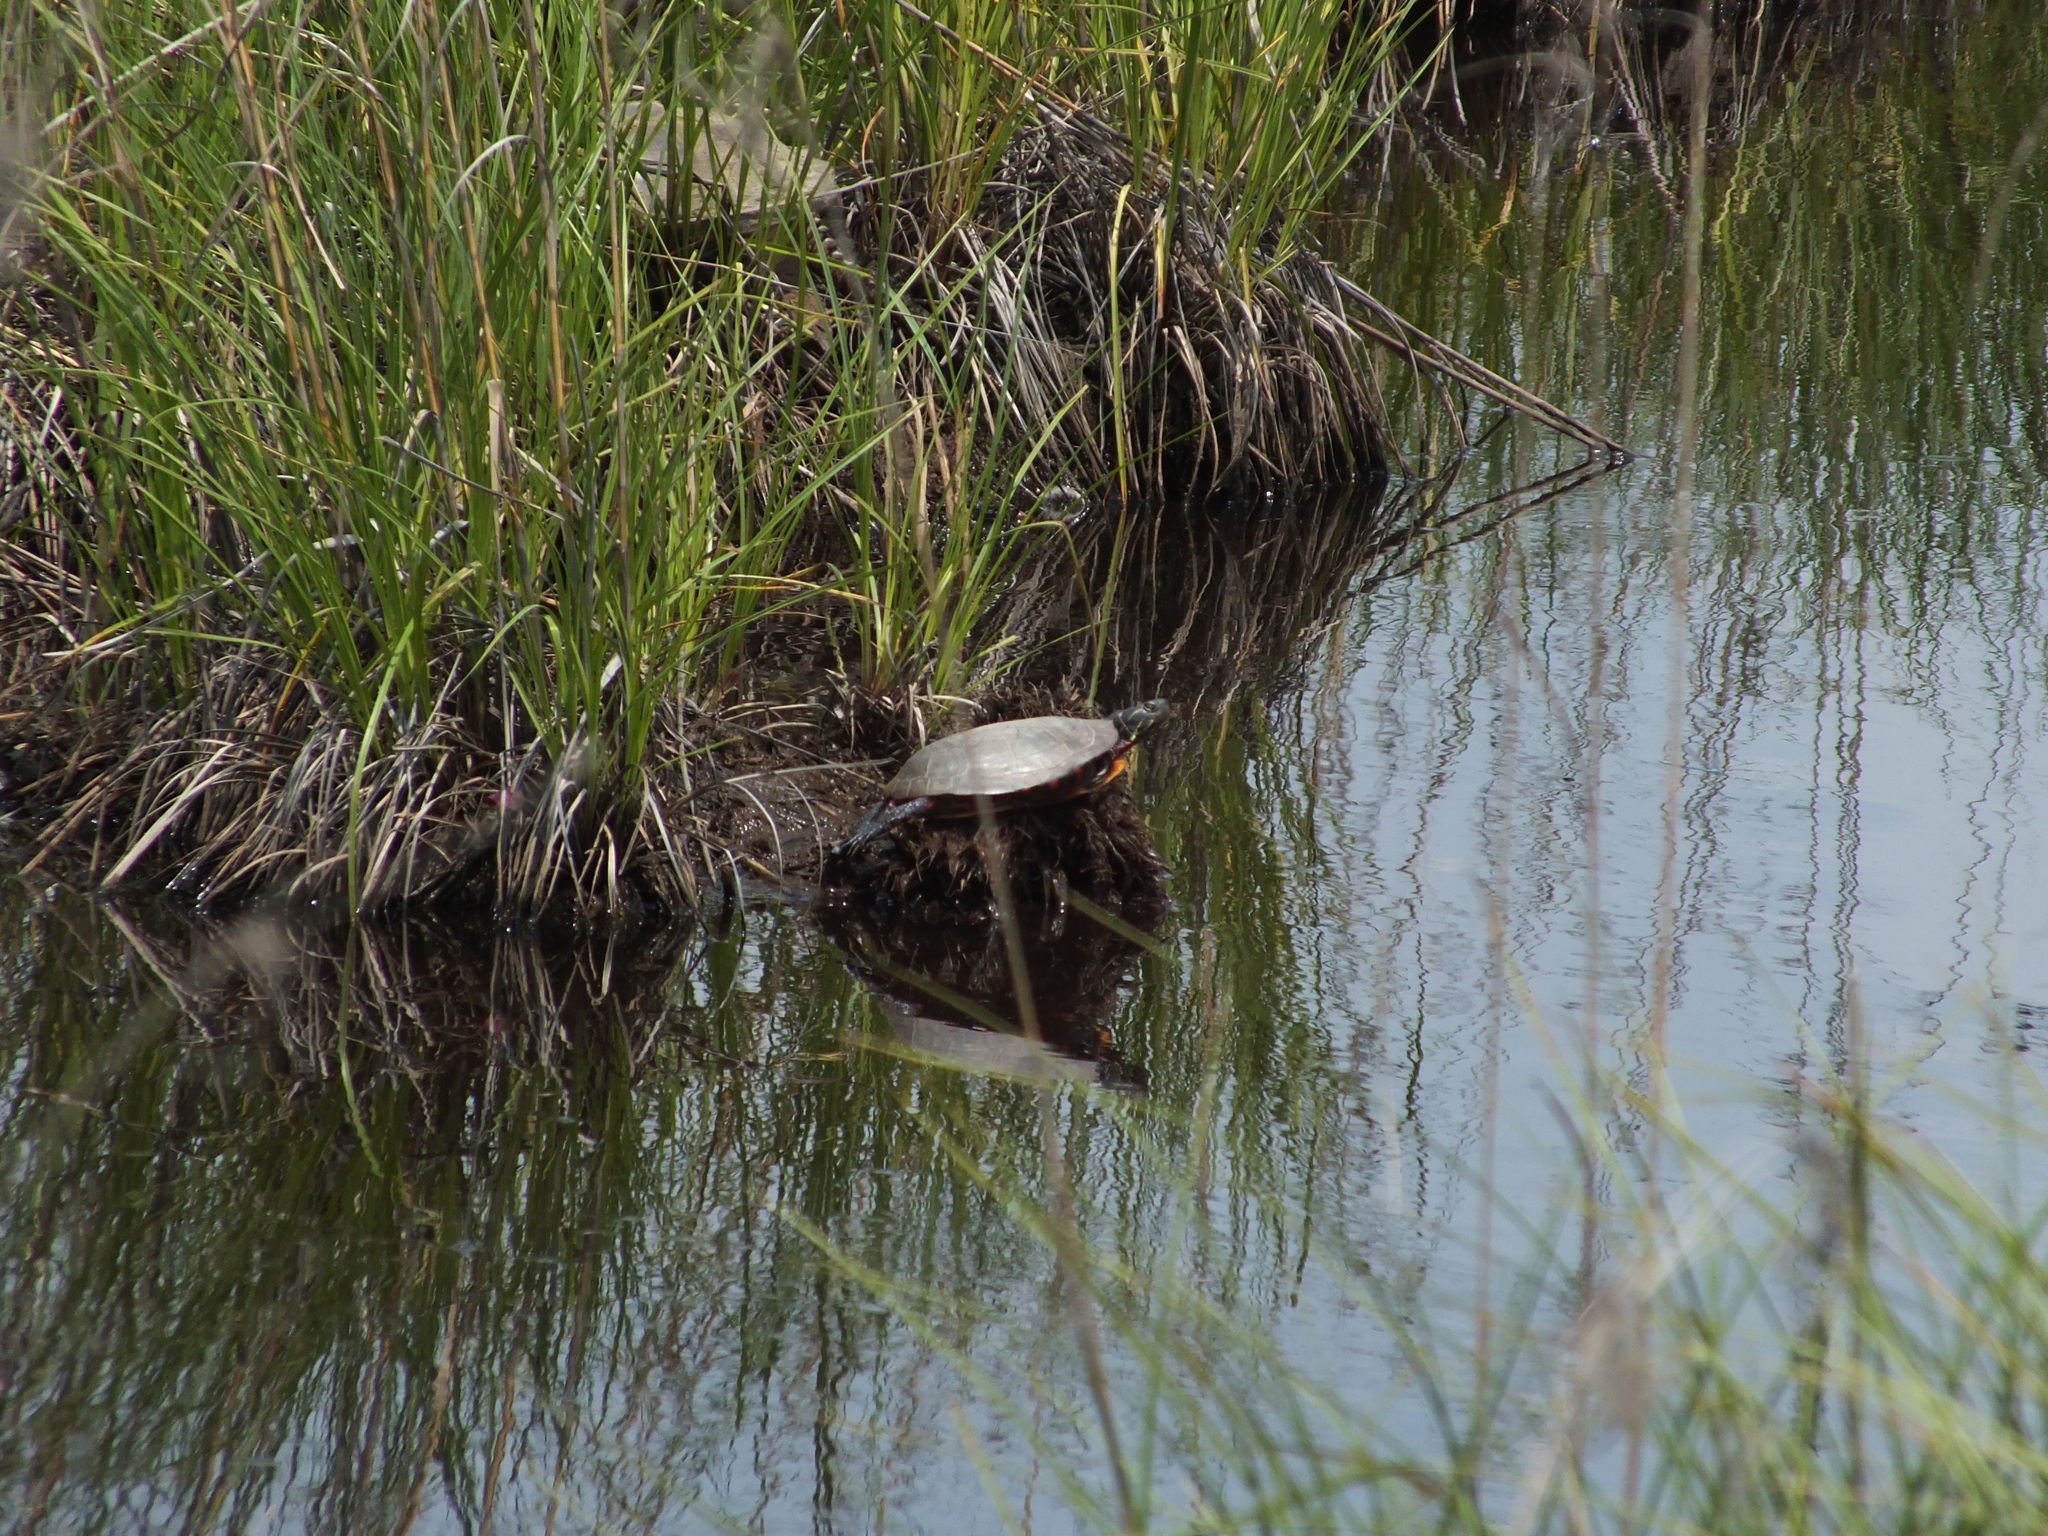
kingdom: Animalia
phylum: Chordata
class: Testudines
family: Emydidae
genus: Chrysemys
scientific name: Chrysemys picta
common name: Painted turtle
